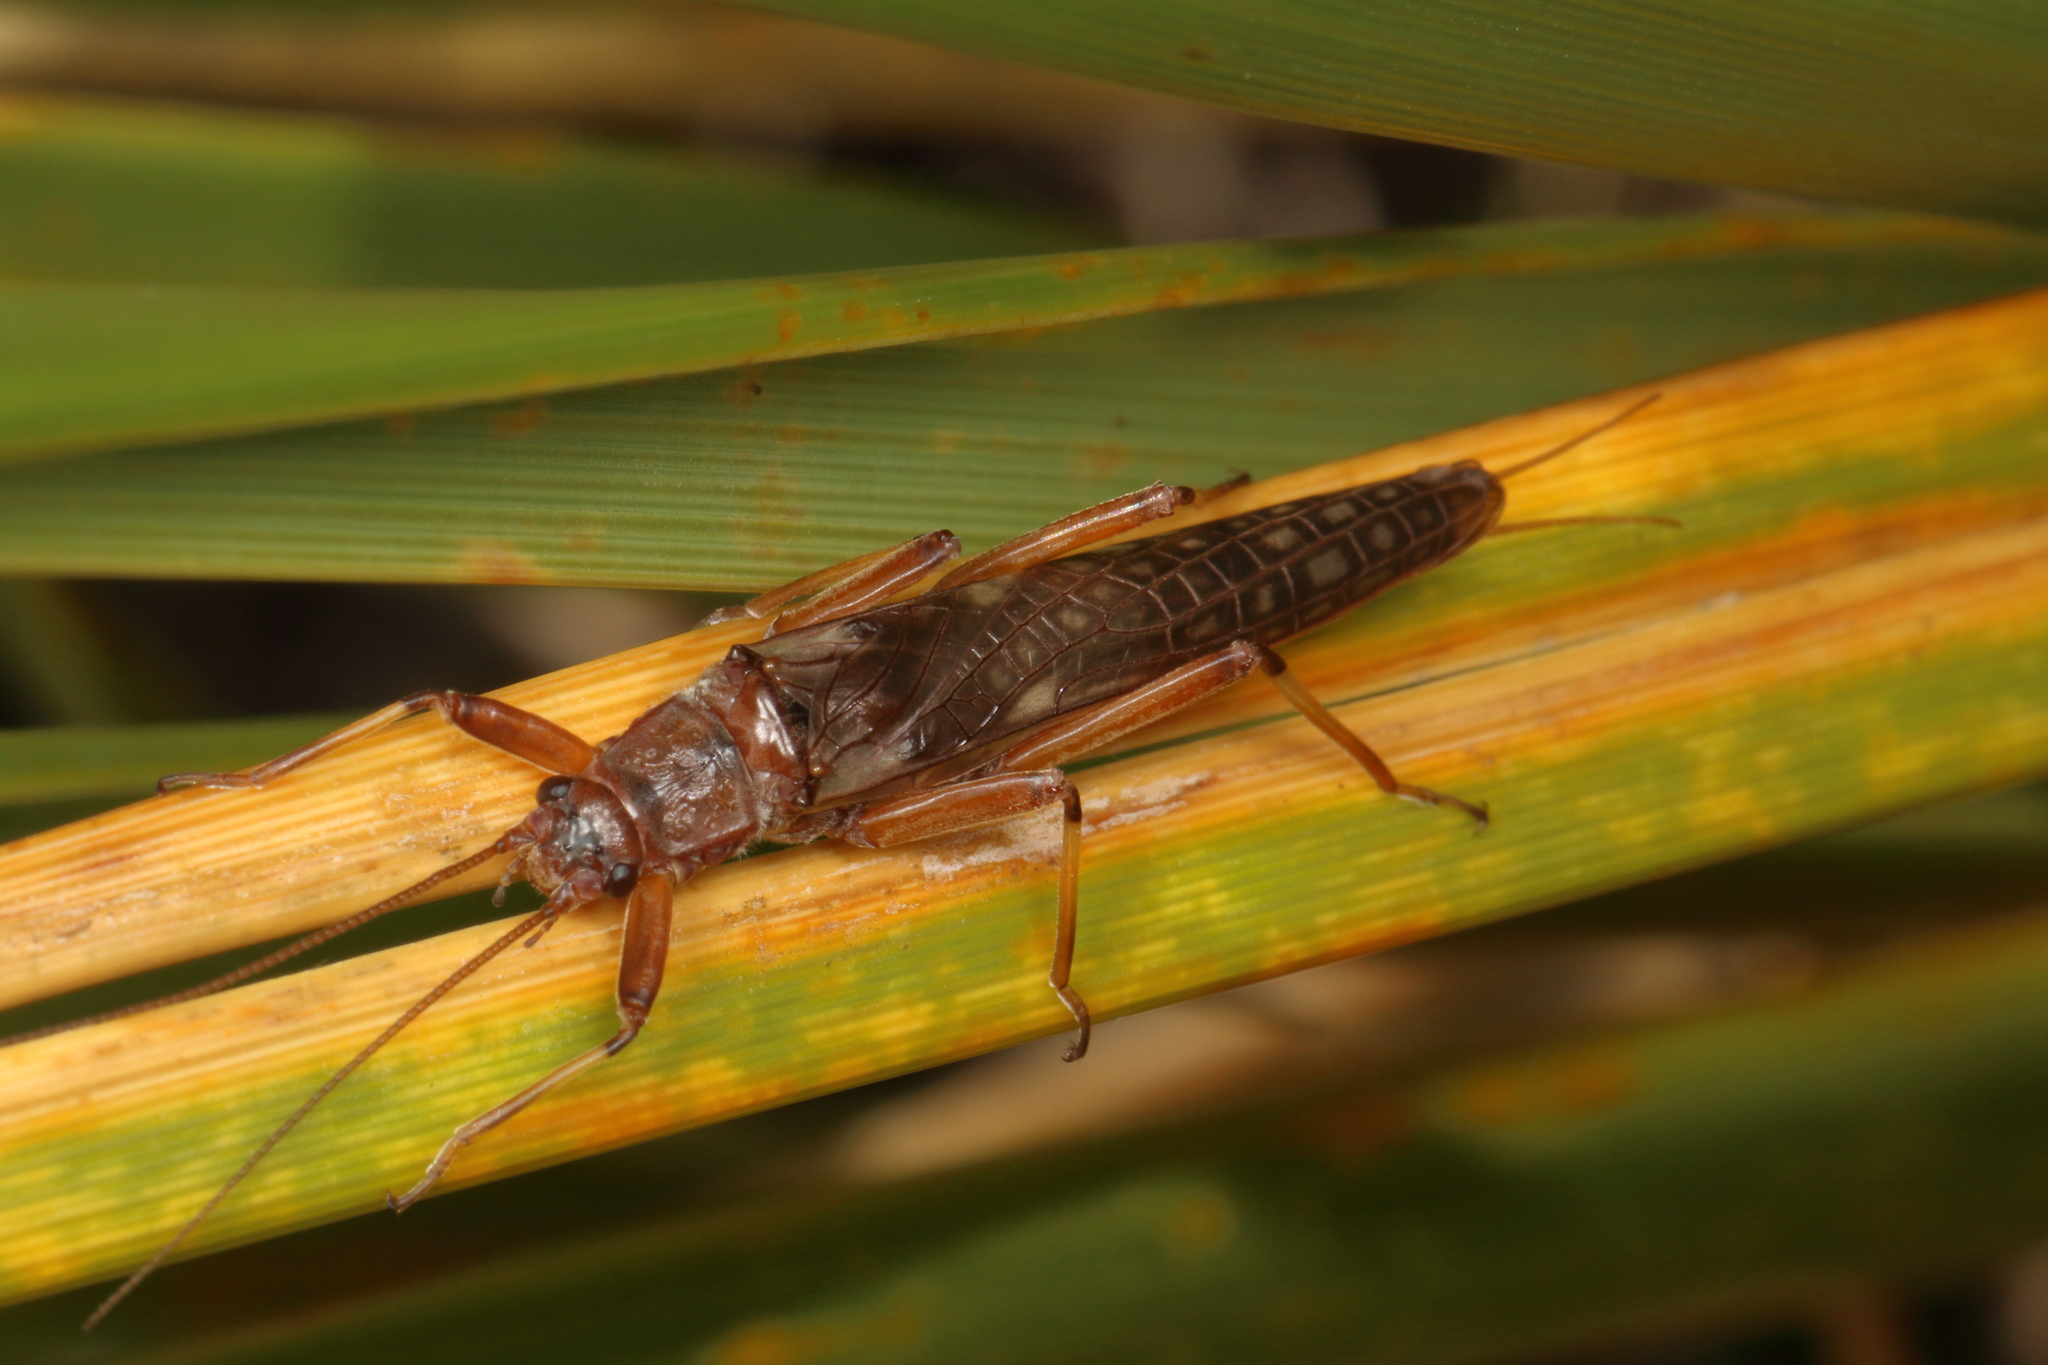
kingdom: Animalia
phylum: Arthropoda
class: Insecta
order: Plecoptera
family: Gripopterygidae
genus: Zelandoperla
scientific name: Zelandoperla fenestrata
